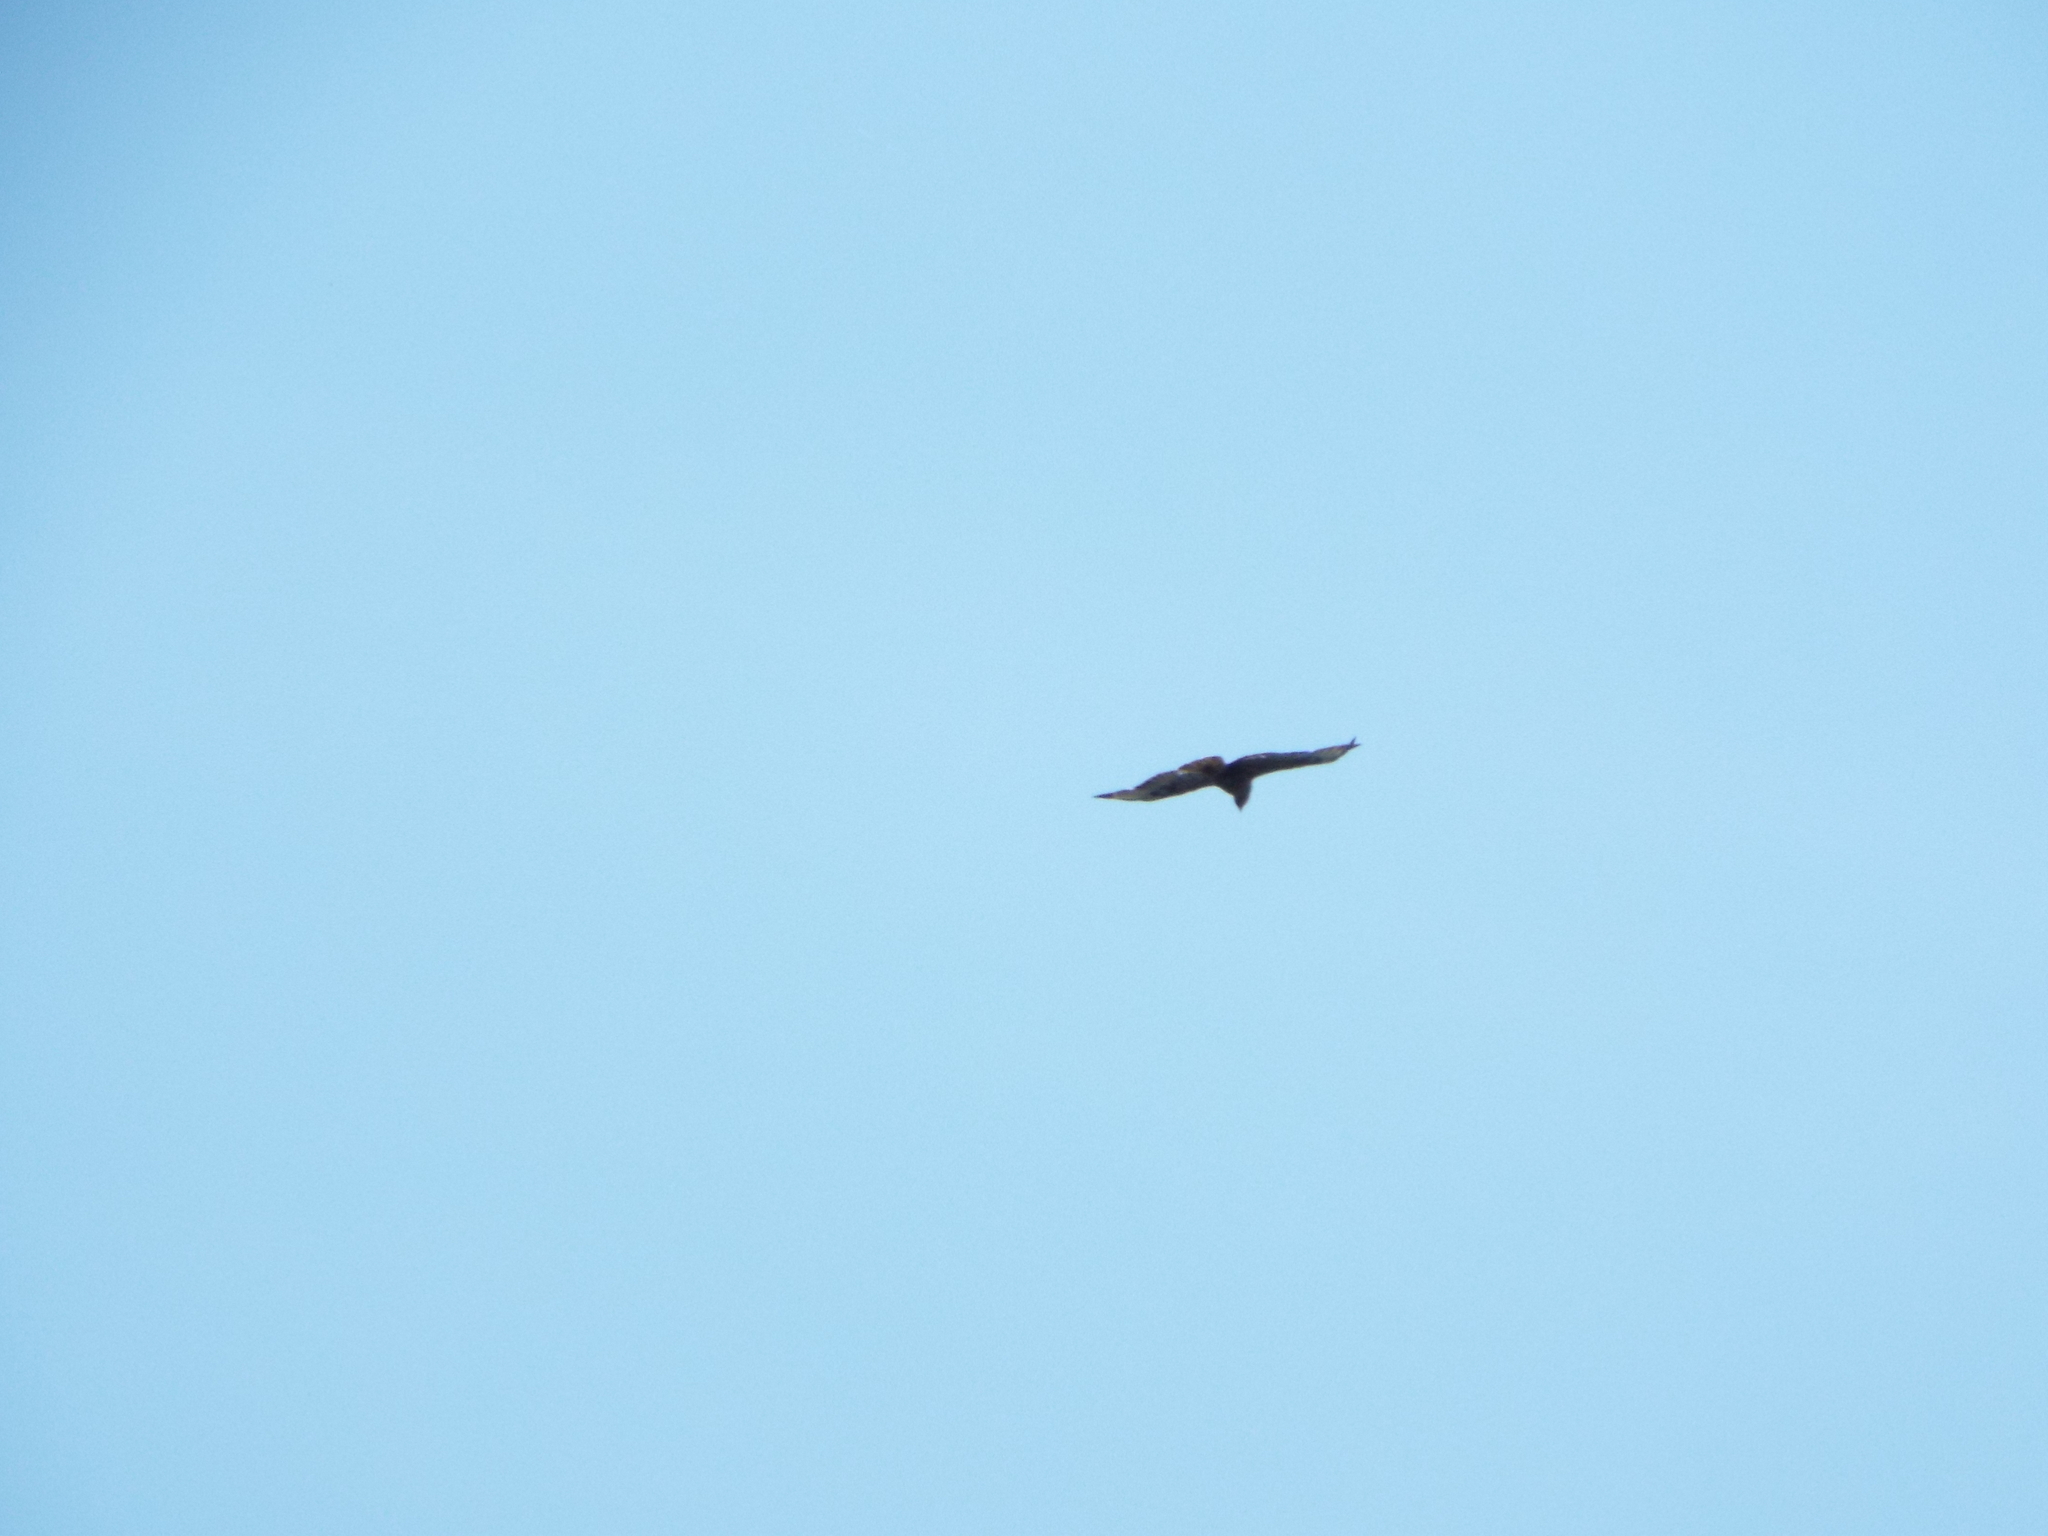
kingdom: Animalia
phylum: Chordata
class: Aves
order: Accipitriformes
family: Accipitridae
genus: Buteo
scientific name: Buteo buteo
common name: Common buzzard
